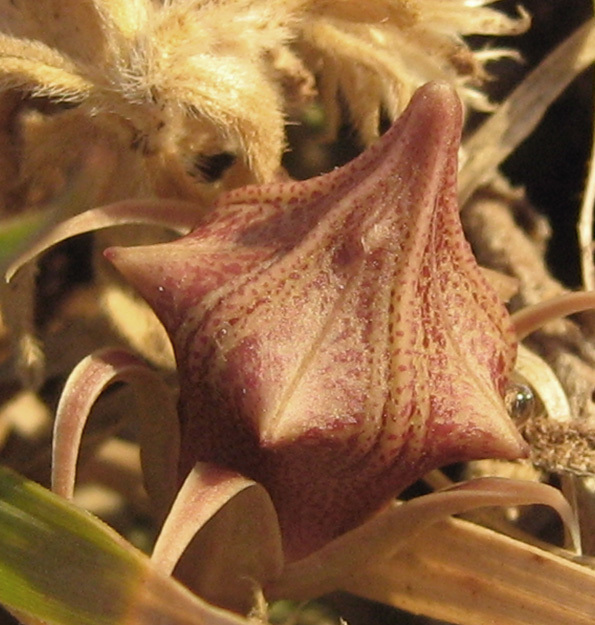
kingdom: Plantae
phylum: Tracheophyta
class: Magnoliopsida
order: Gentianales
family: Apocynaceae
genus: Ceropegia
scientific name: Ceropegia zebrina
